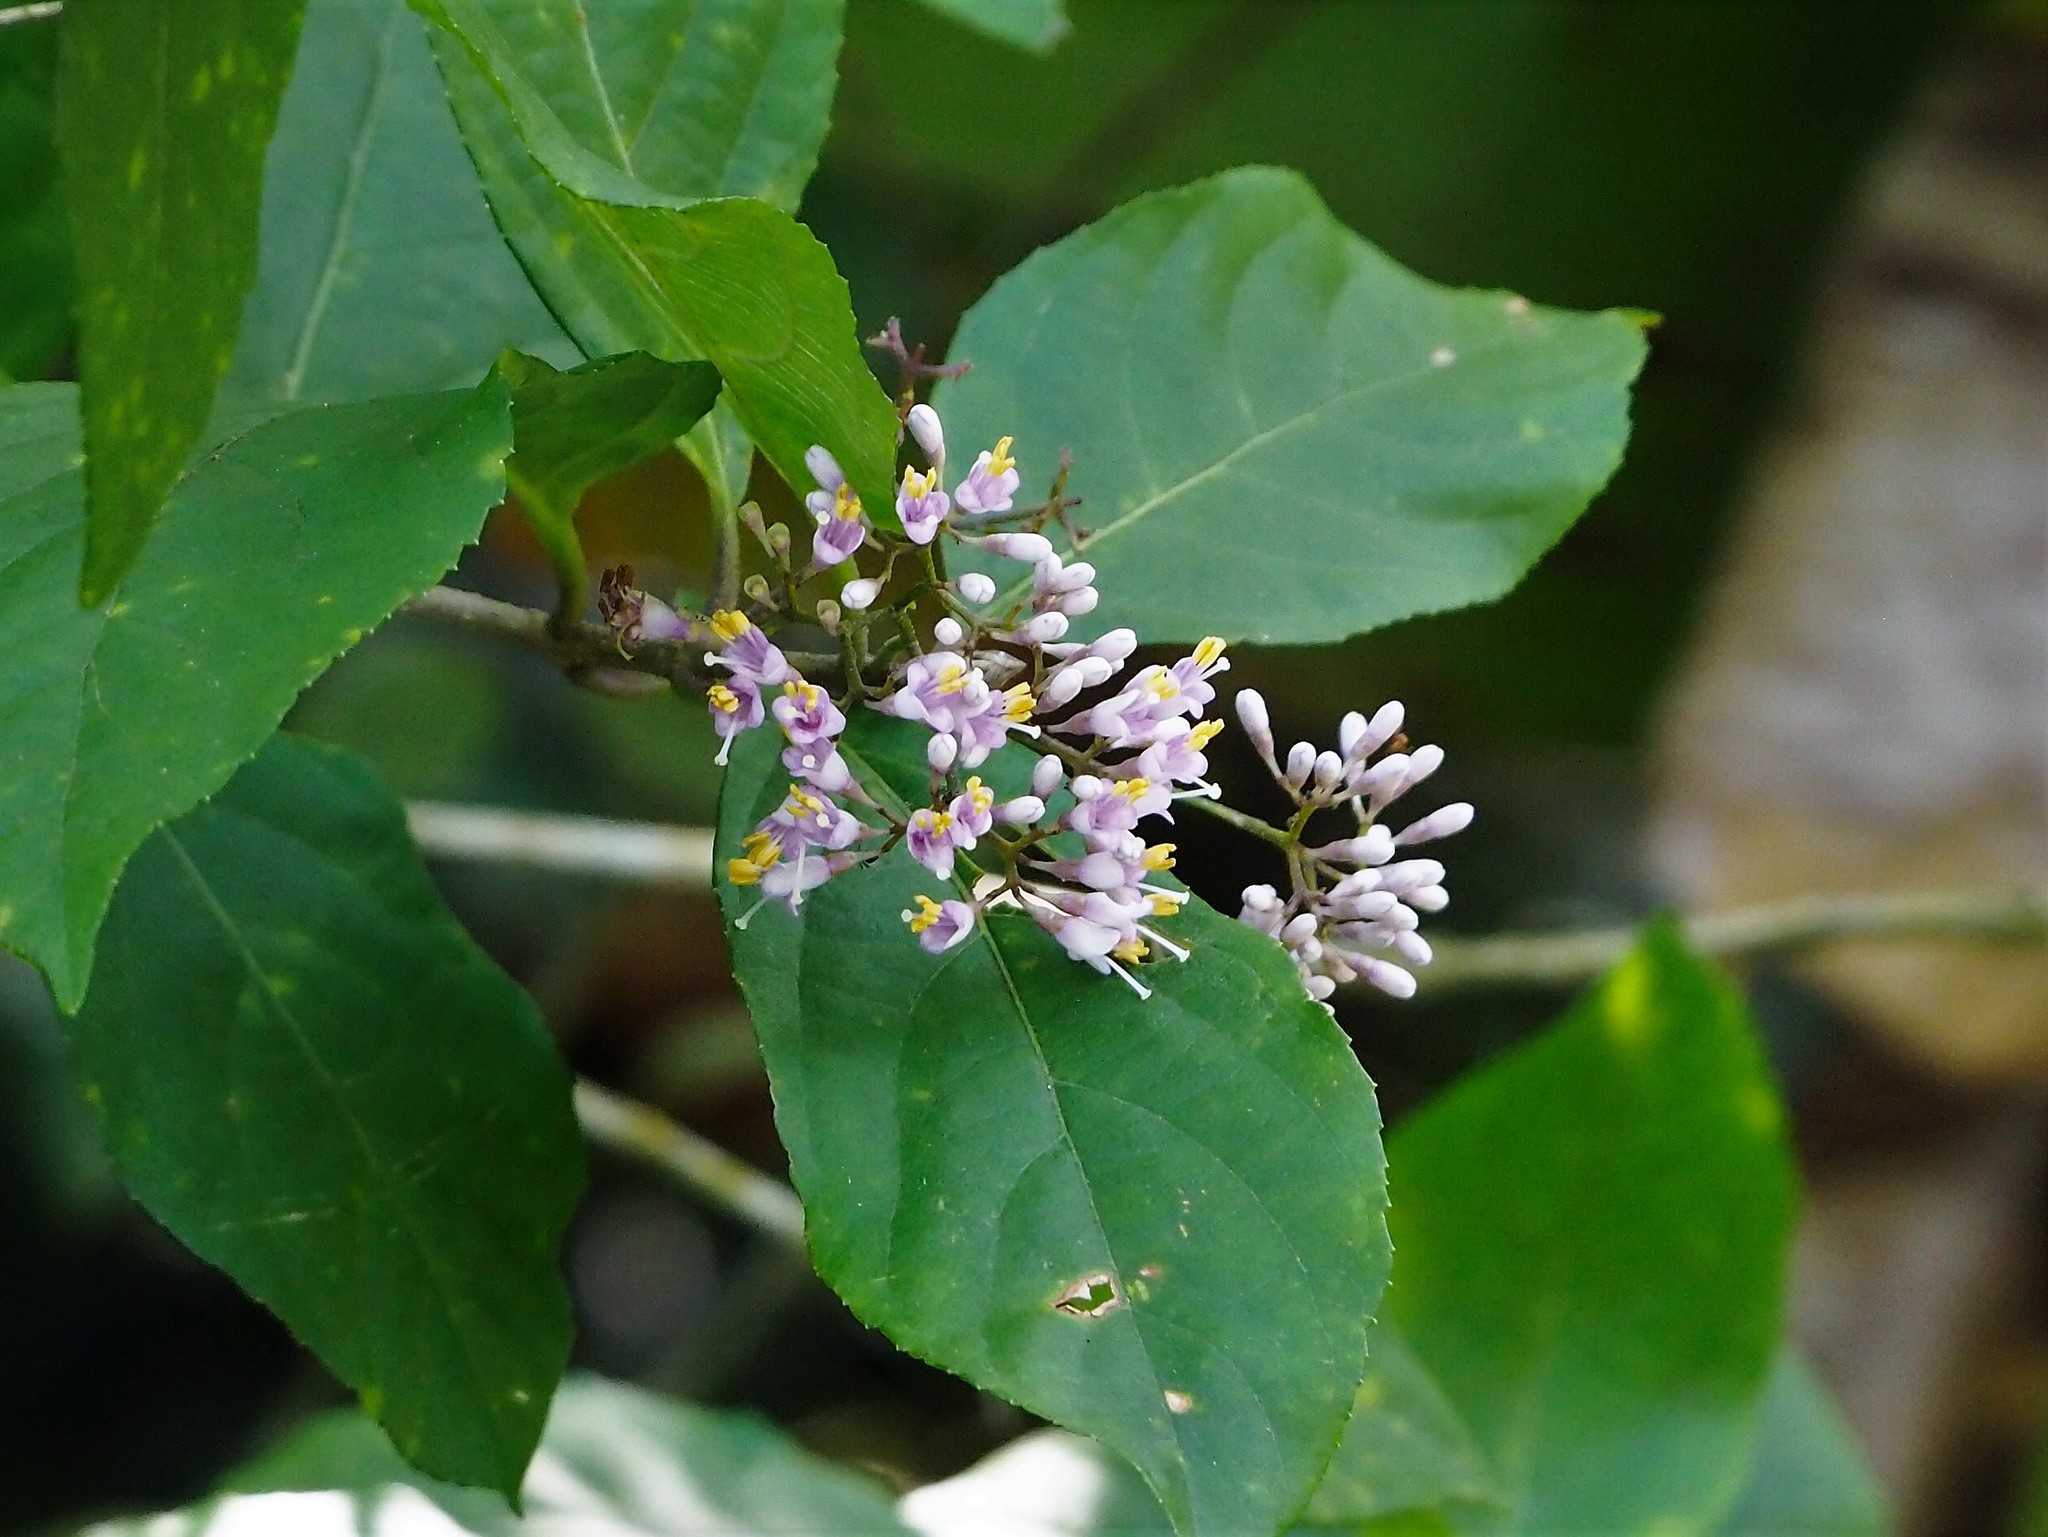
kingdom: Plantae
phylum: Tracheophyta
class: Magnoliopsida
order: Lamiales
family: Lamiaceae
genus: Callicarpa
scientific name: Callicarpa japonica
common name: Japanese beauty-berry
